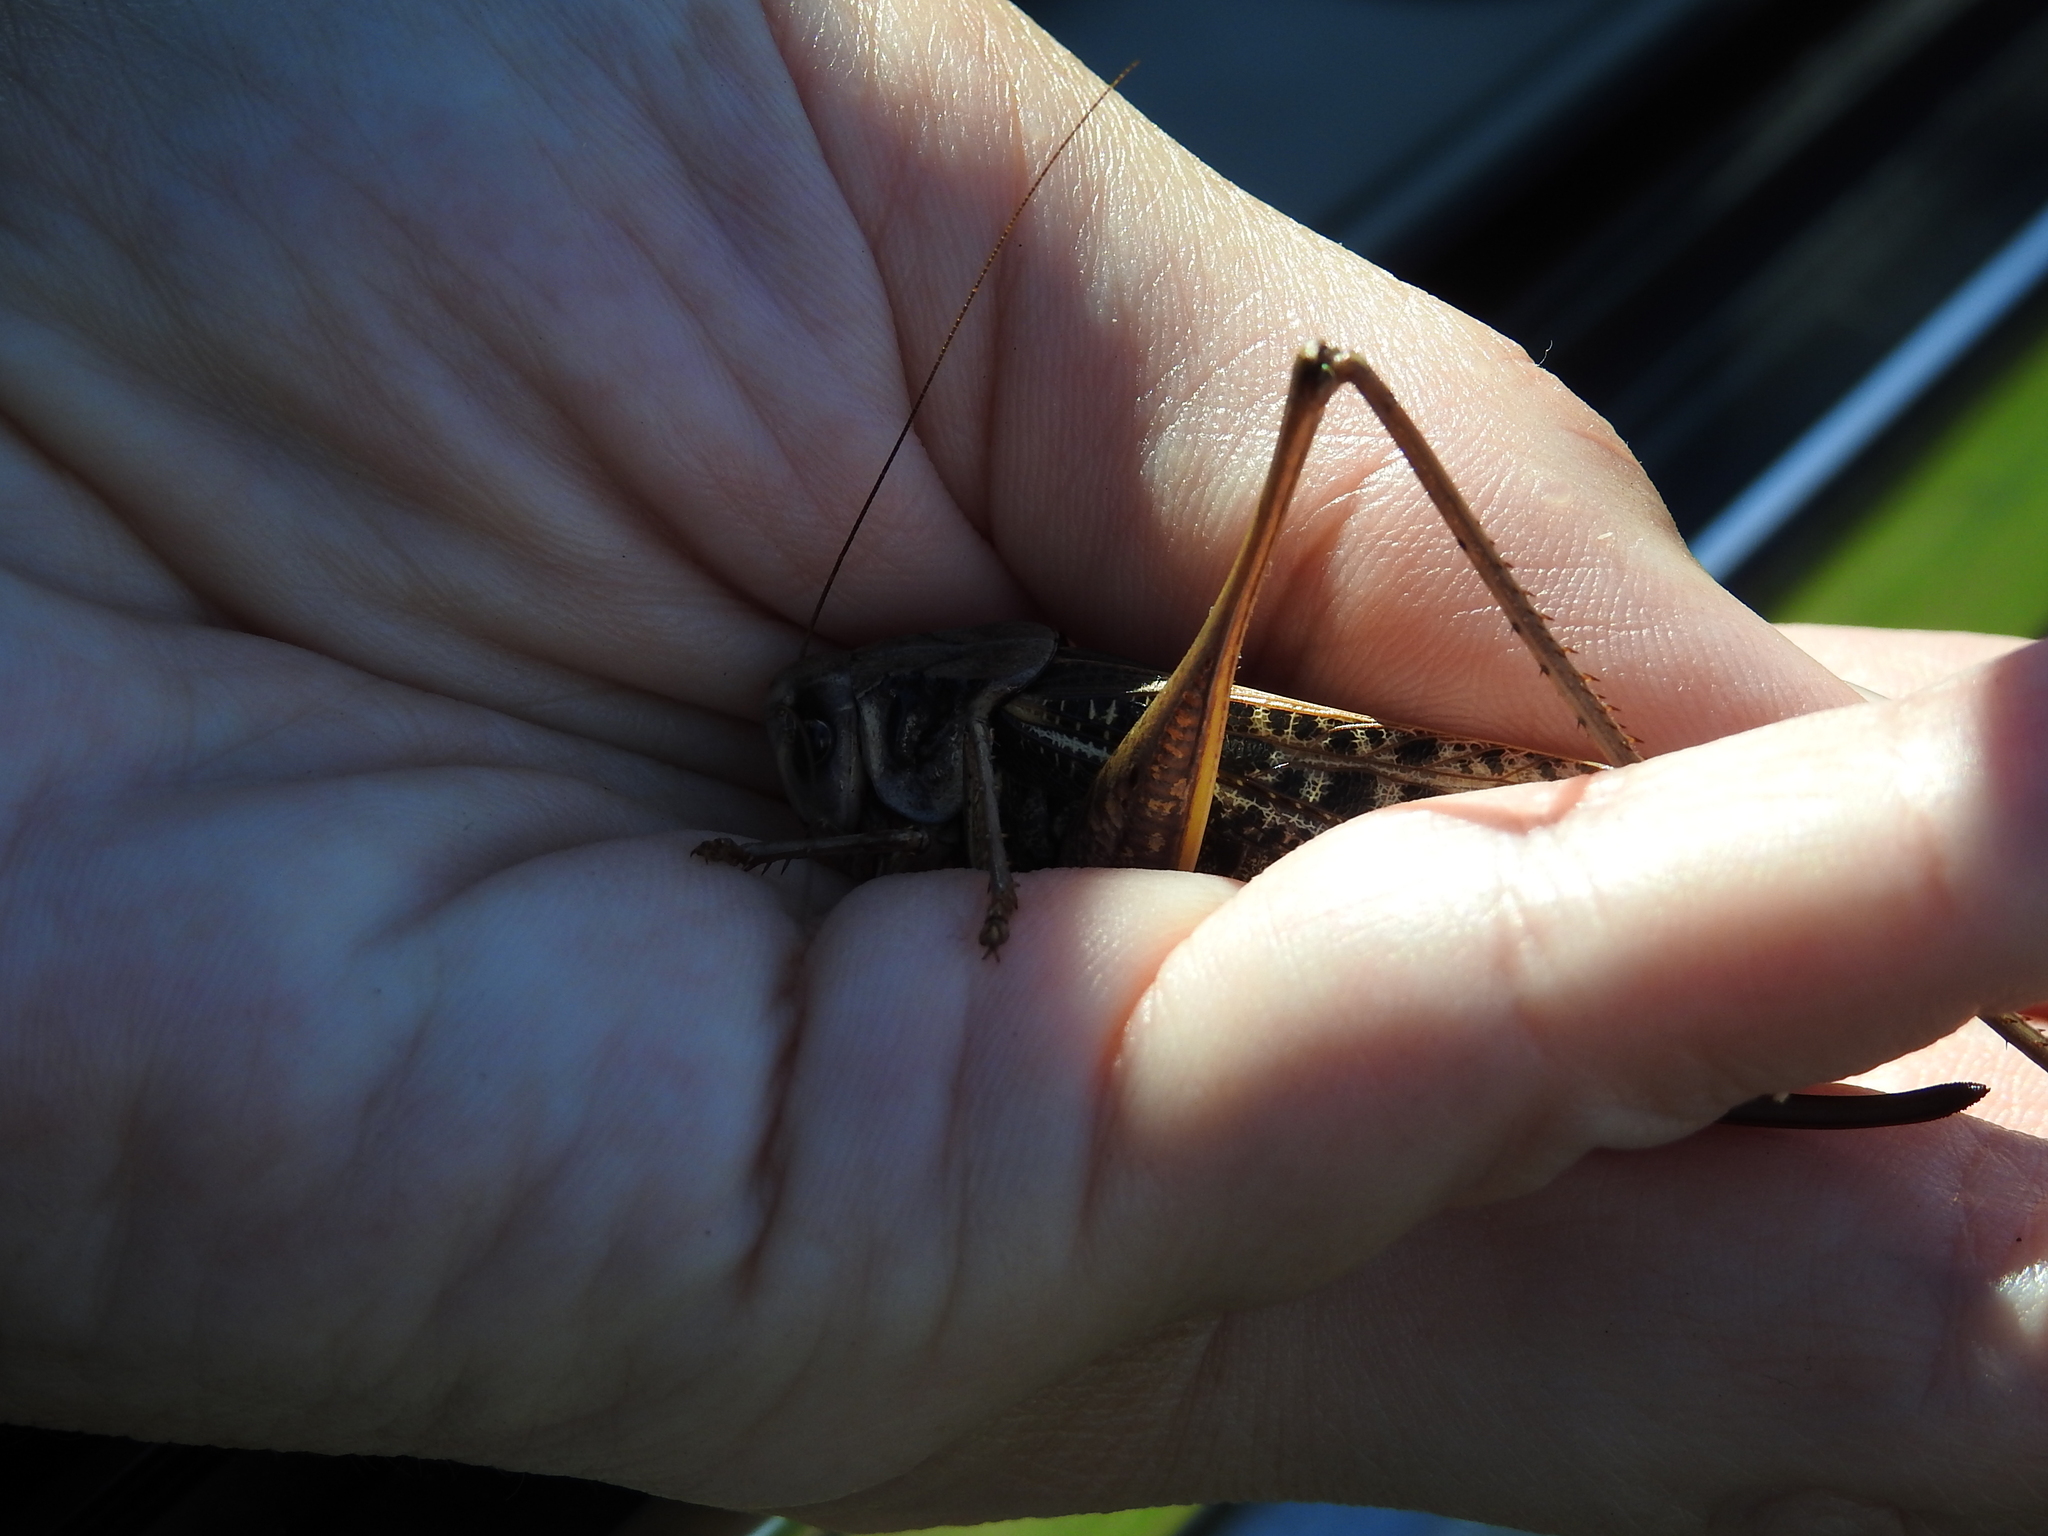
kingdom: Animalia
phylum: Arthropoda
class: Insecta
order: Orthoptera
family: Tettigoniidae
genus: Decticus
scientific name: Decticus verrucivorus
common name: Wart-biter
